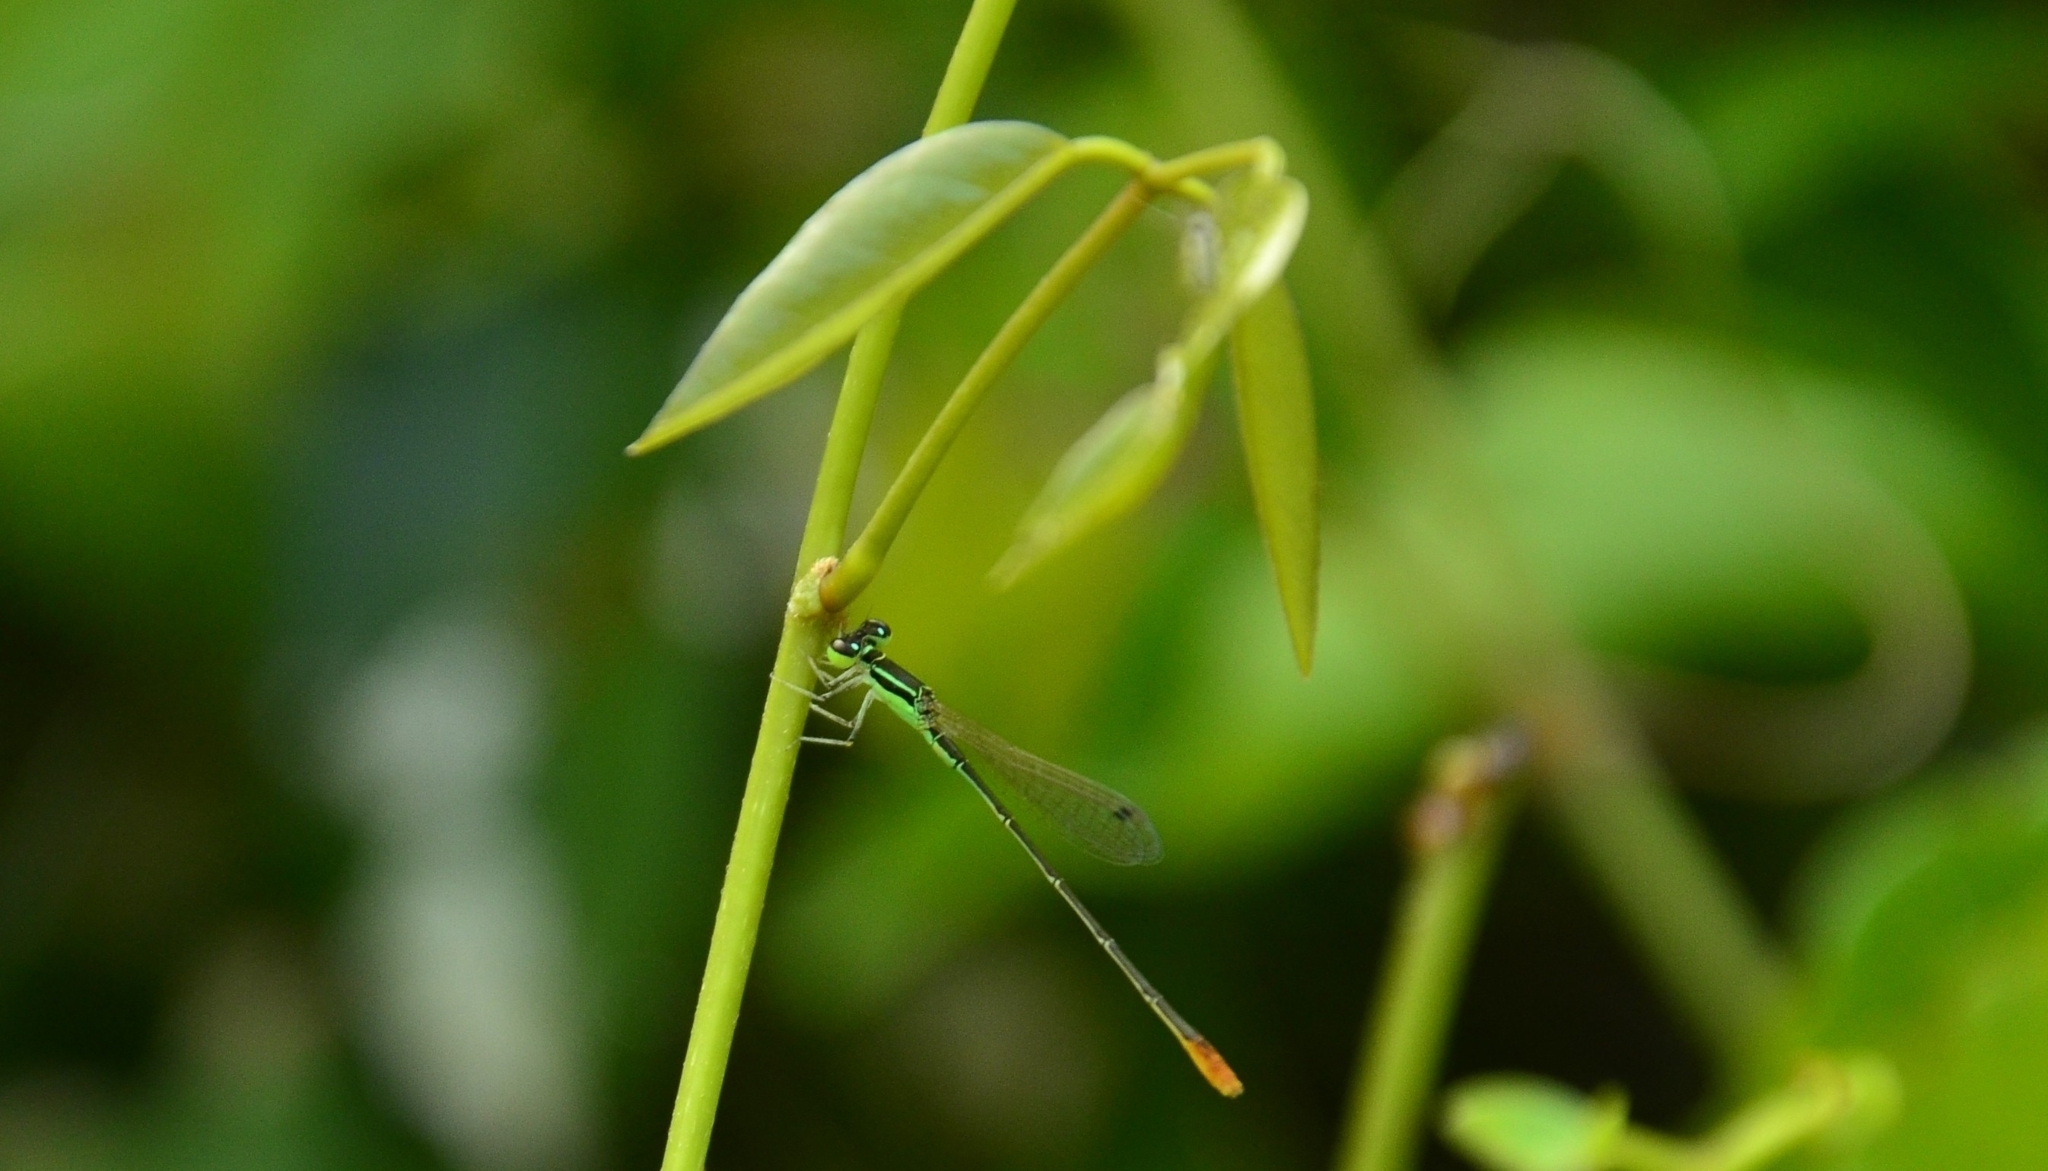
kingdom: Animalia
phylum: Arthropoda
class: Insecta
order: Odonata
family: Coenagrionidae
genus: Agriocnemis
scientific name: Agriocnemis pygmaea
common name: Pygmy wisp
